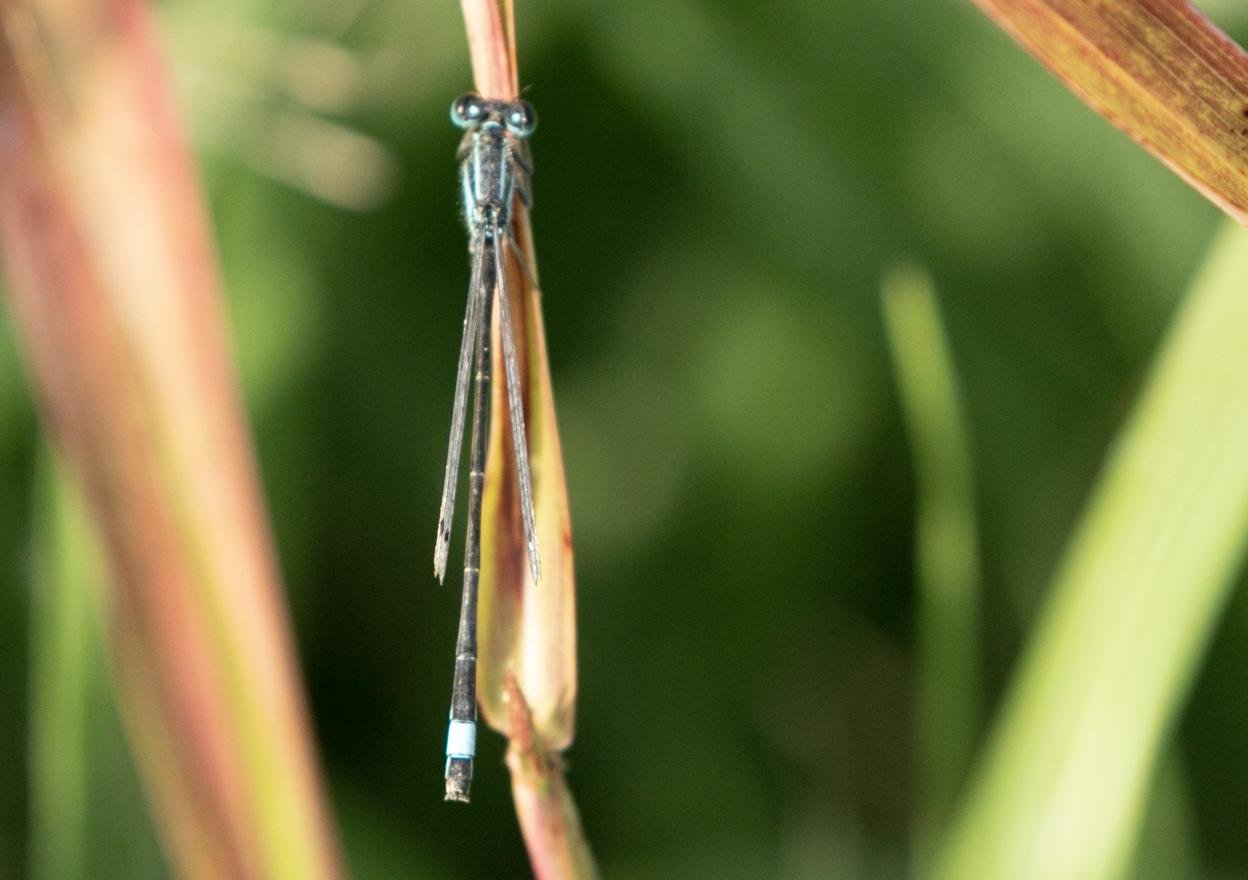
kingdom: Animalia
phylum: Arthropoda
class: Insecta
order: Odonata
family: Coenagrionidae
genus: Ischnura
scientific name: Ischnura elegans
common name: Blue-tailed damselfly
